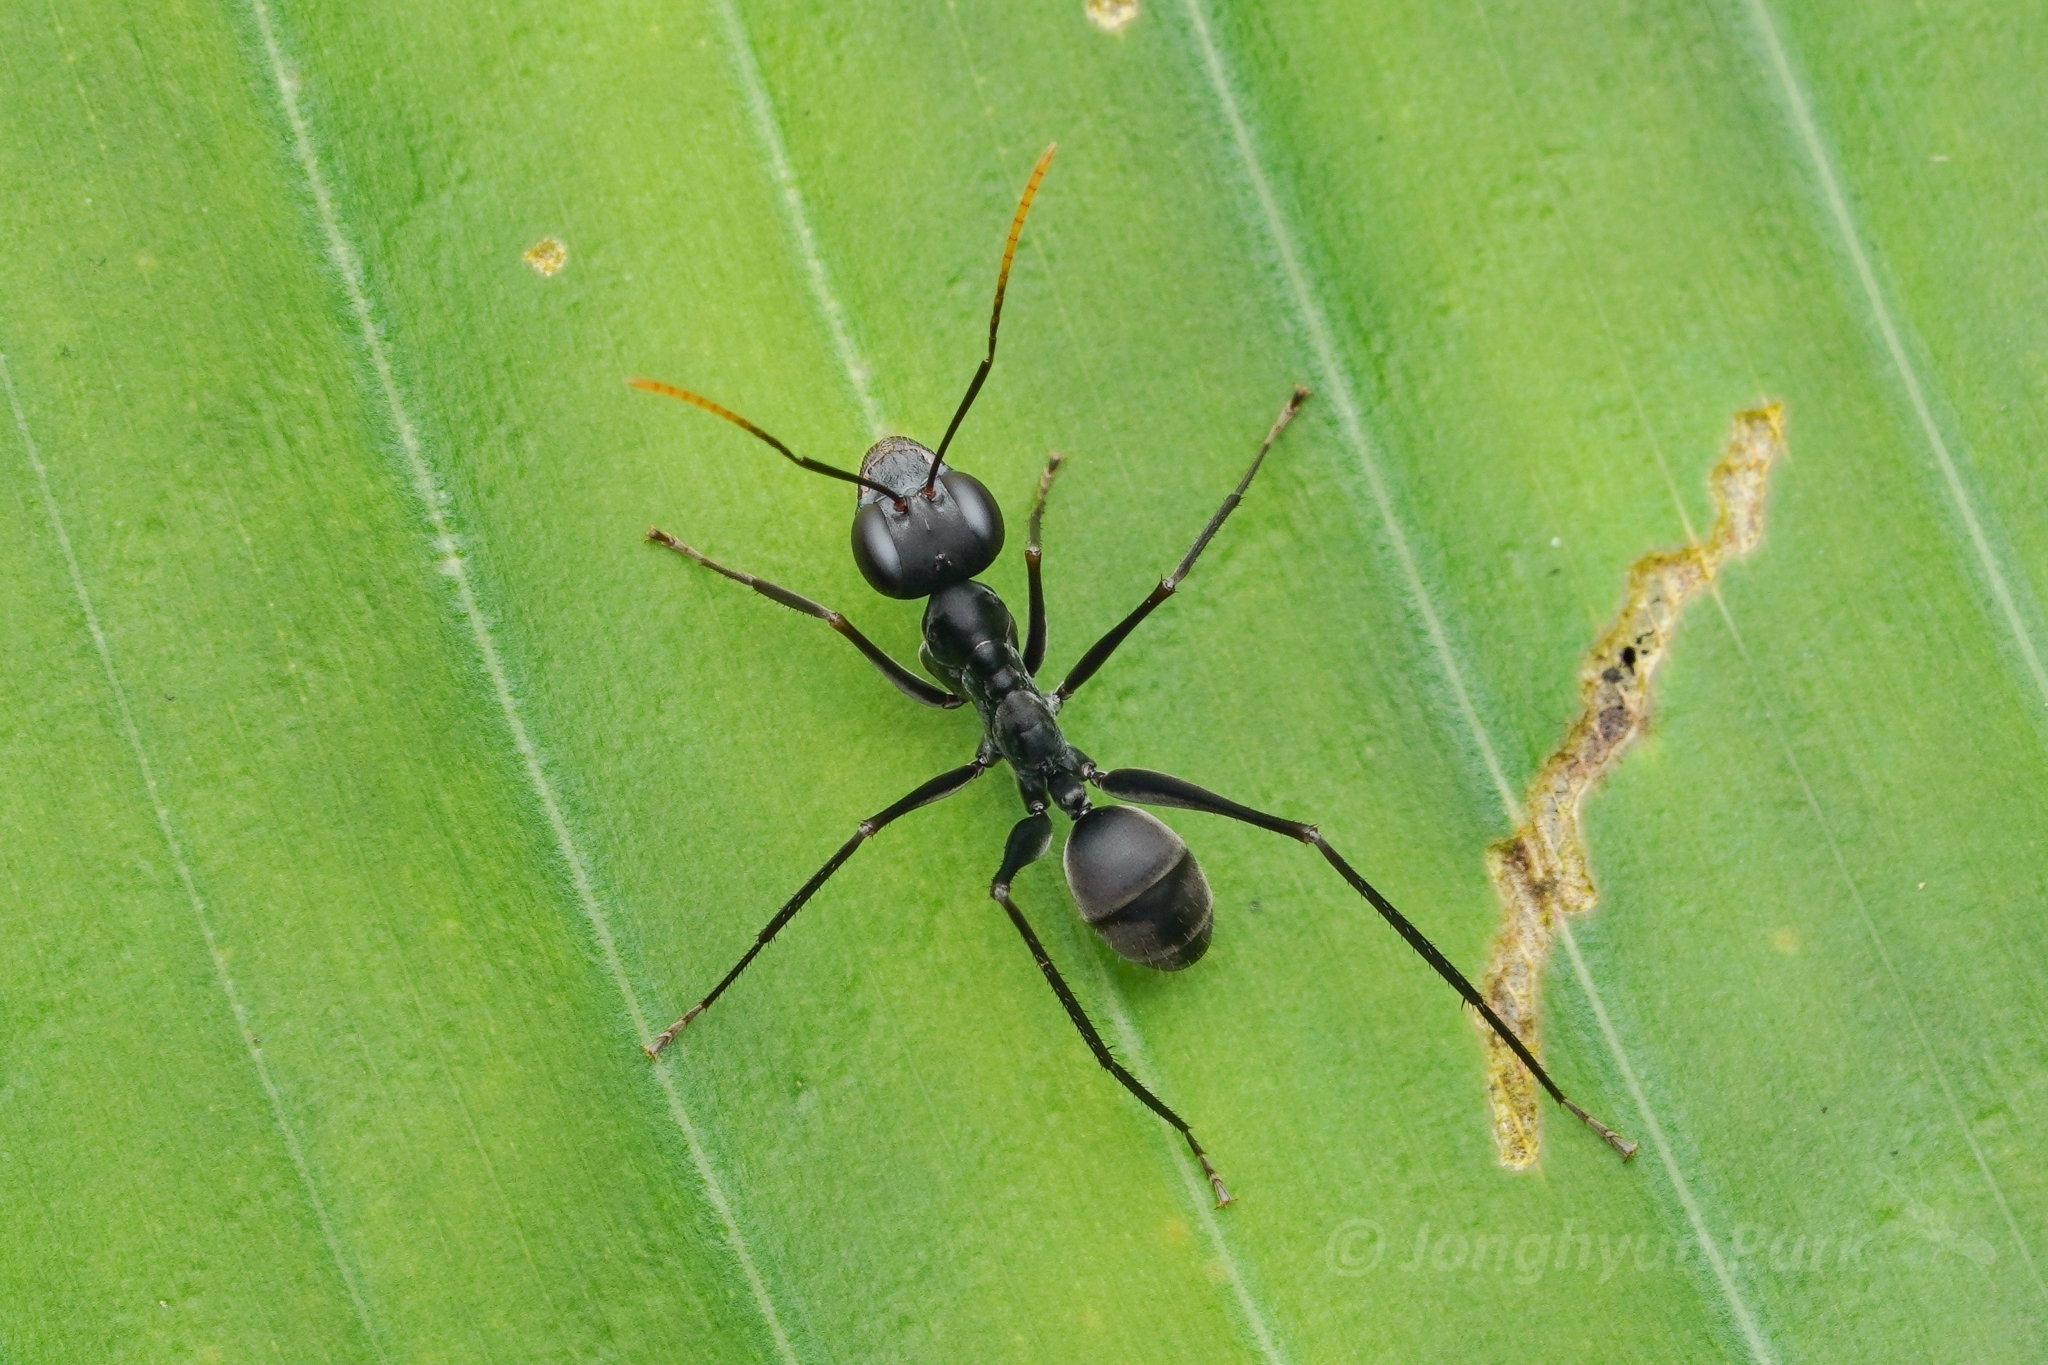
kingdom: Animalia
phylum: Arthropoda
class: Insecta
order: Hymenoptera
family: Formicidae
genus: Gigantiops
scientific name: Gigantiops destructor
